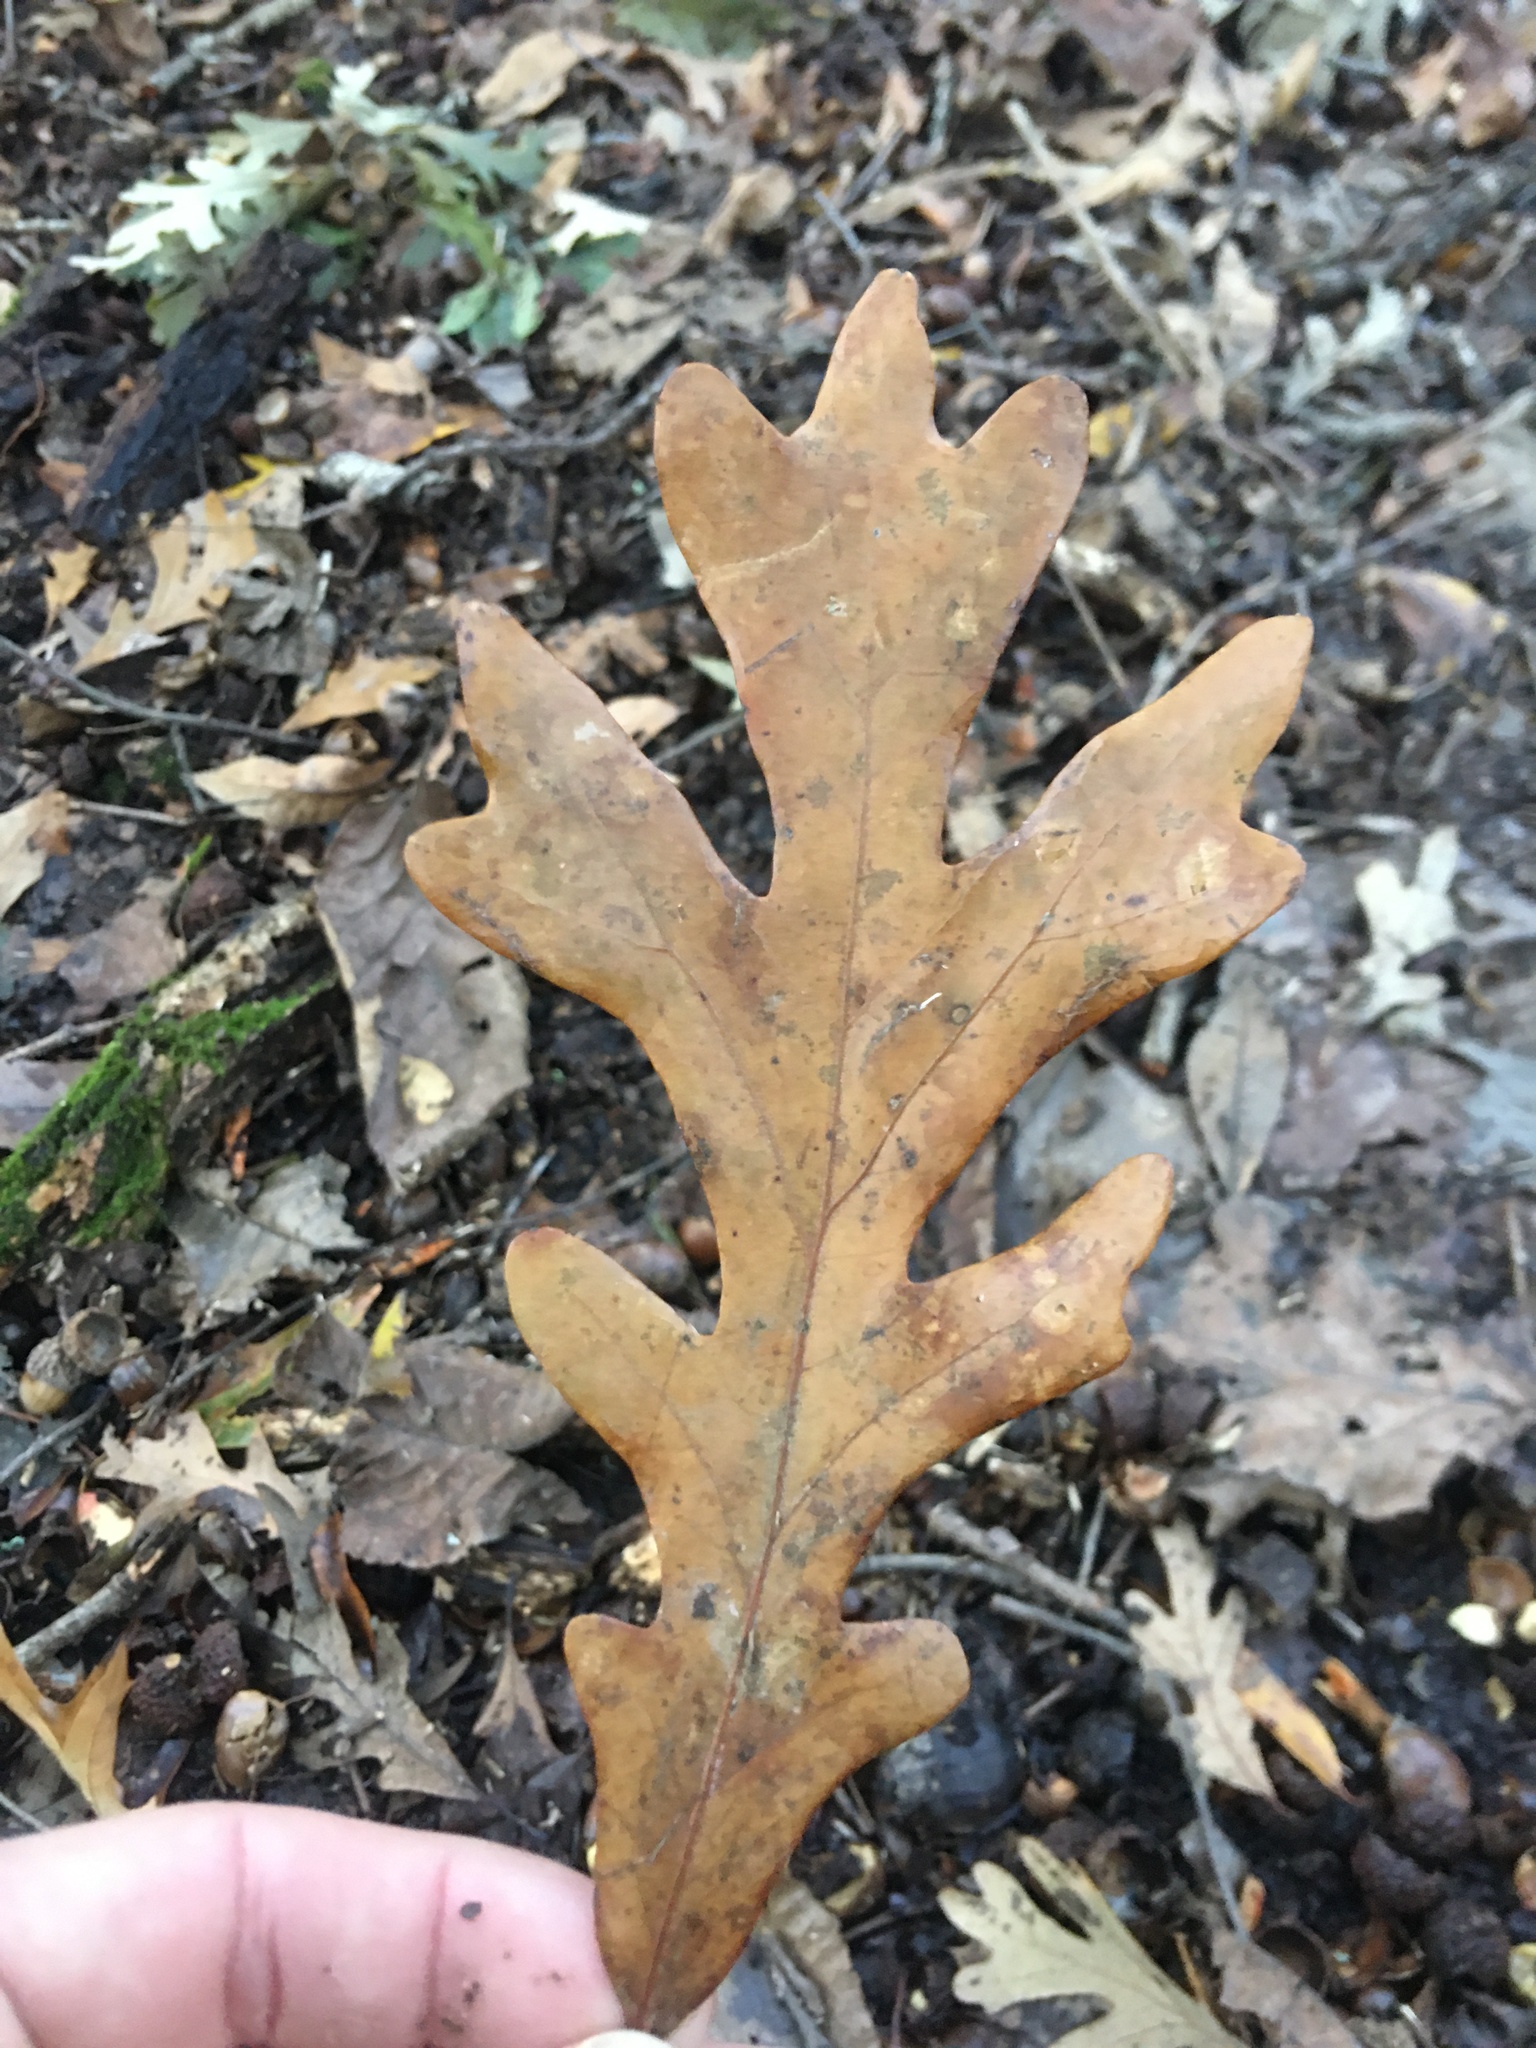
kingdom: Plantae
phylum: Tracheophyta
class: Magnoliopsida
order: Fagales
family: Fagaceae
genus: Quercus
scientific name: Quercus alba
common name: White oak
